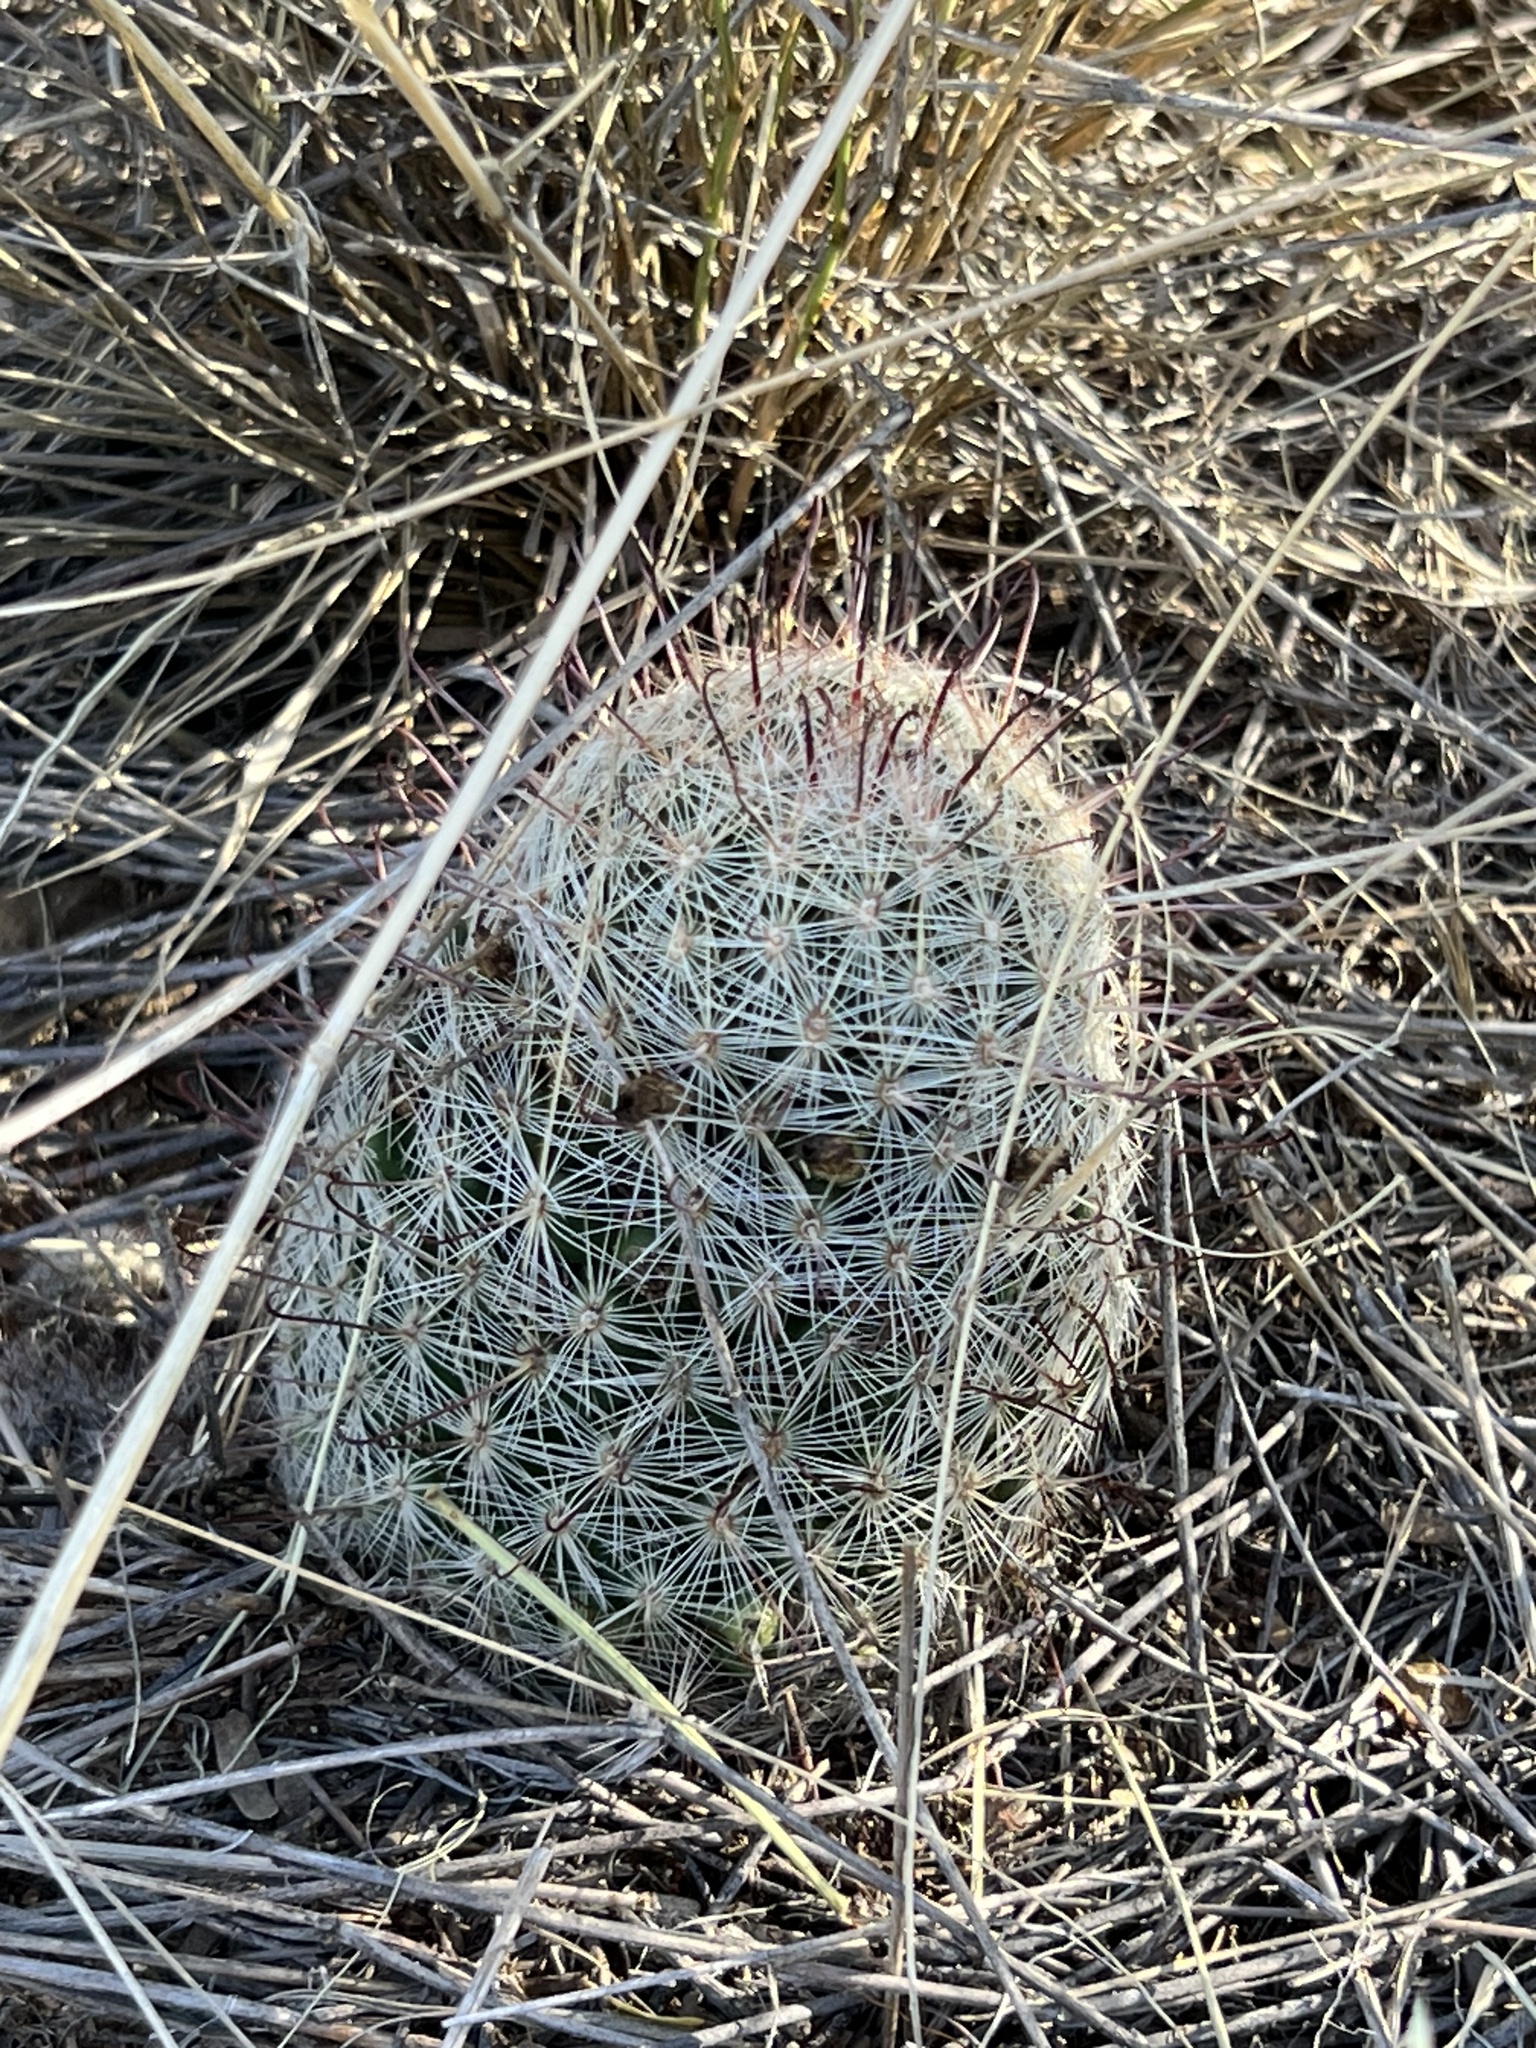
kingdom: Plantae
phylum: Tracheophyta
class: Magnoliopsida
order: Caryophyllales
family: Cactaceae
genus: Cochemiea
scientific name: Cochemiea grahamii
